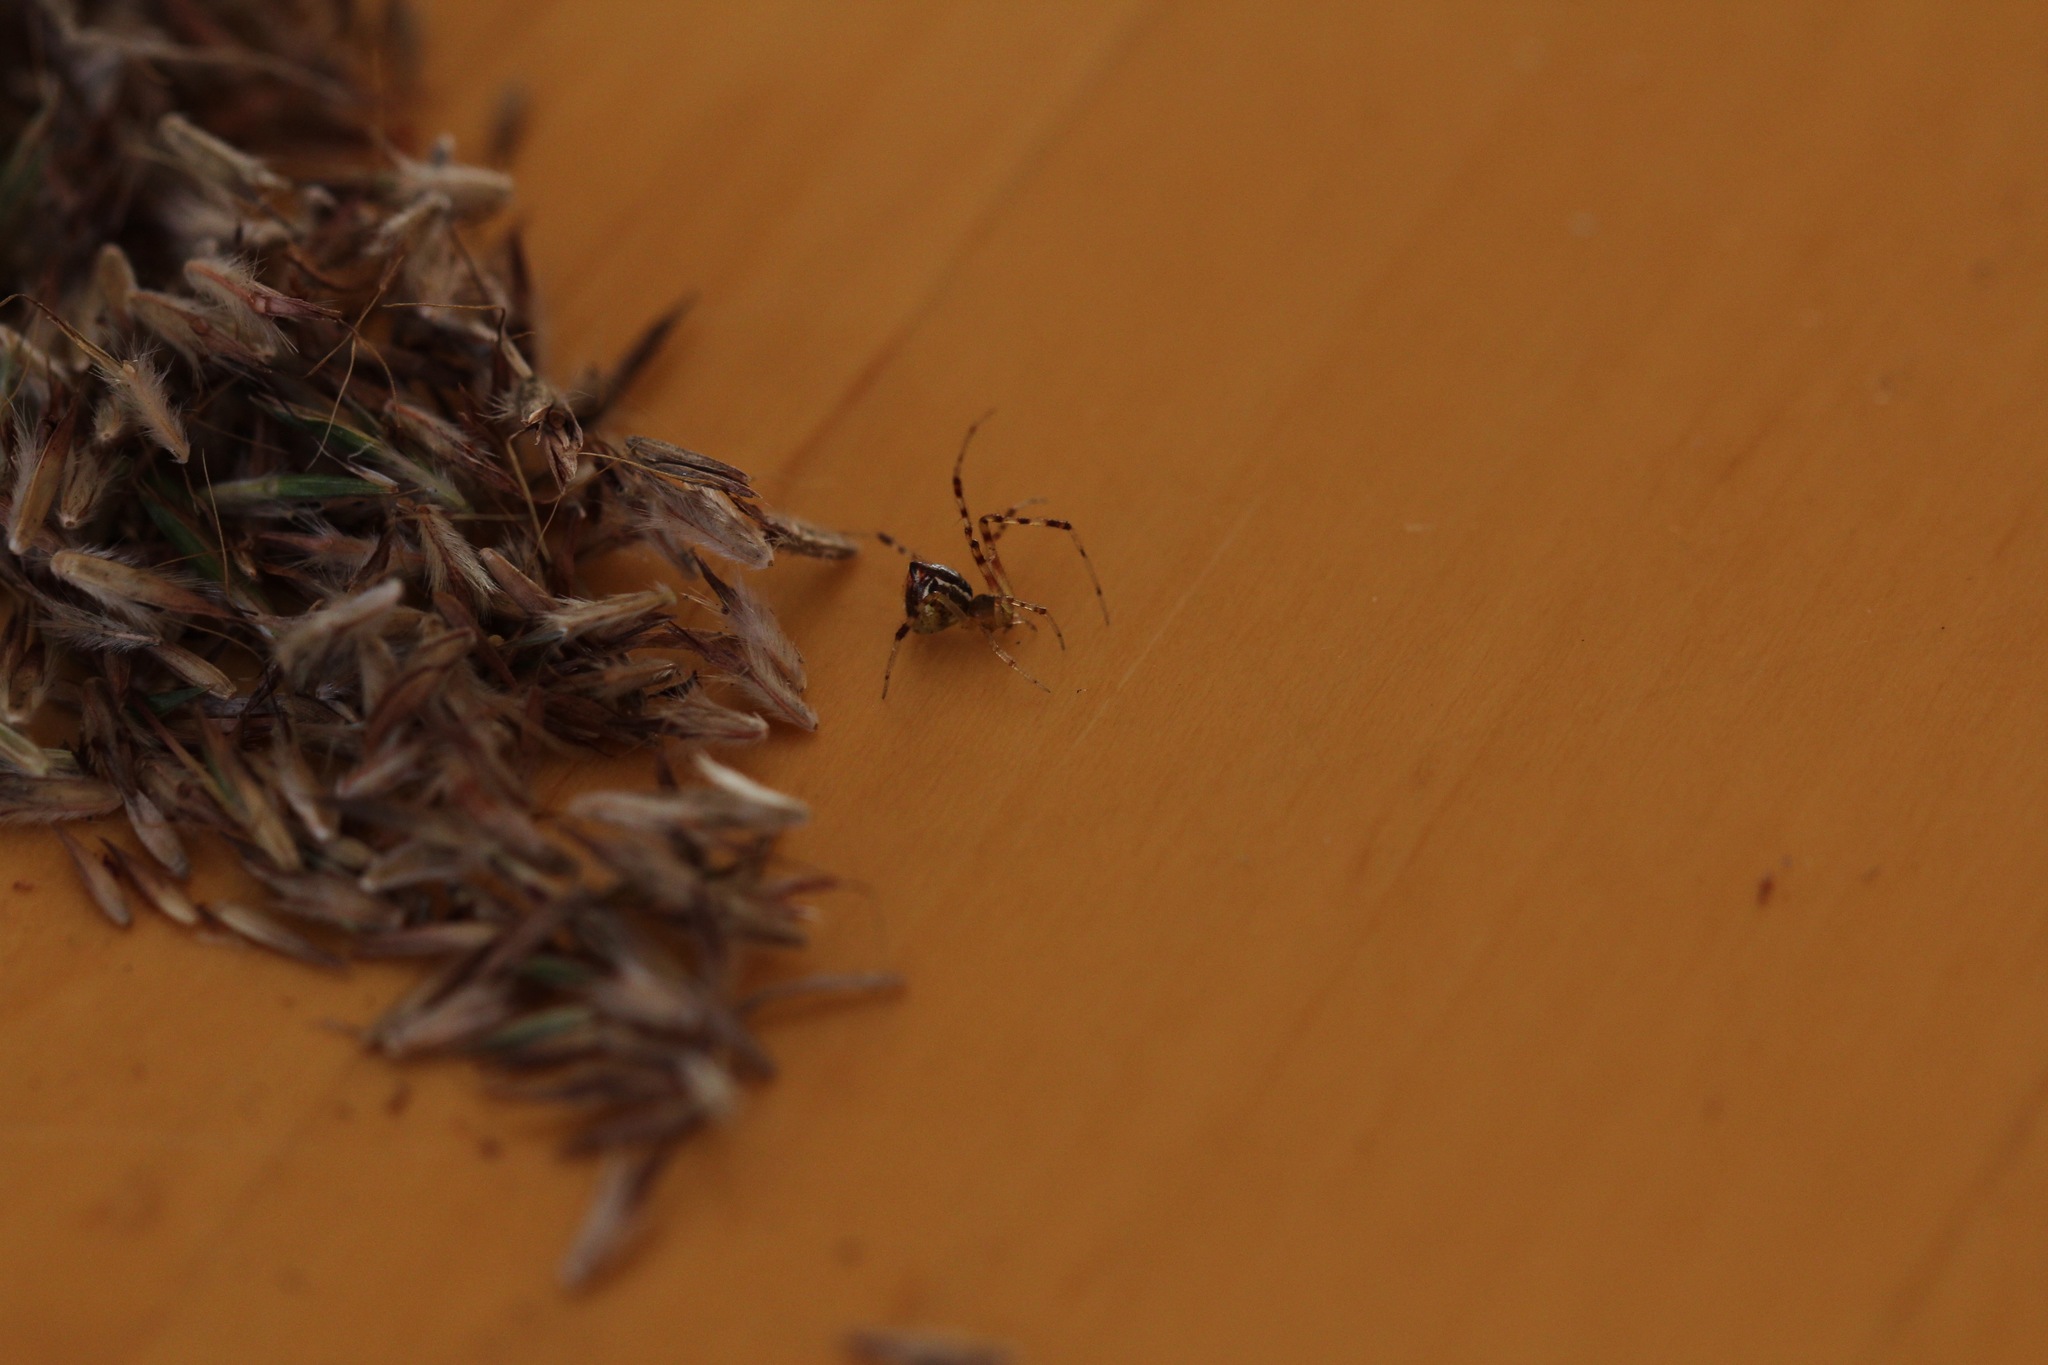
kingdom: Animalia
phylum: Arthropoda
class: Arachnida
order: Araneae
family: Theridiidae
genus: Theridion
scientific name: Theridion pyramidale
